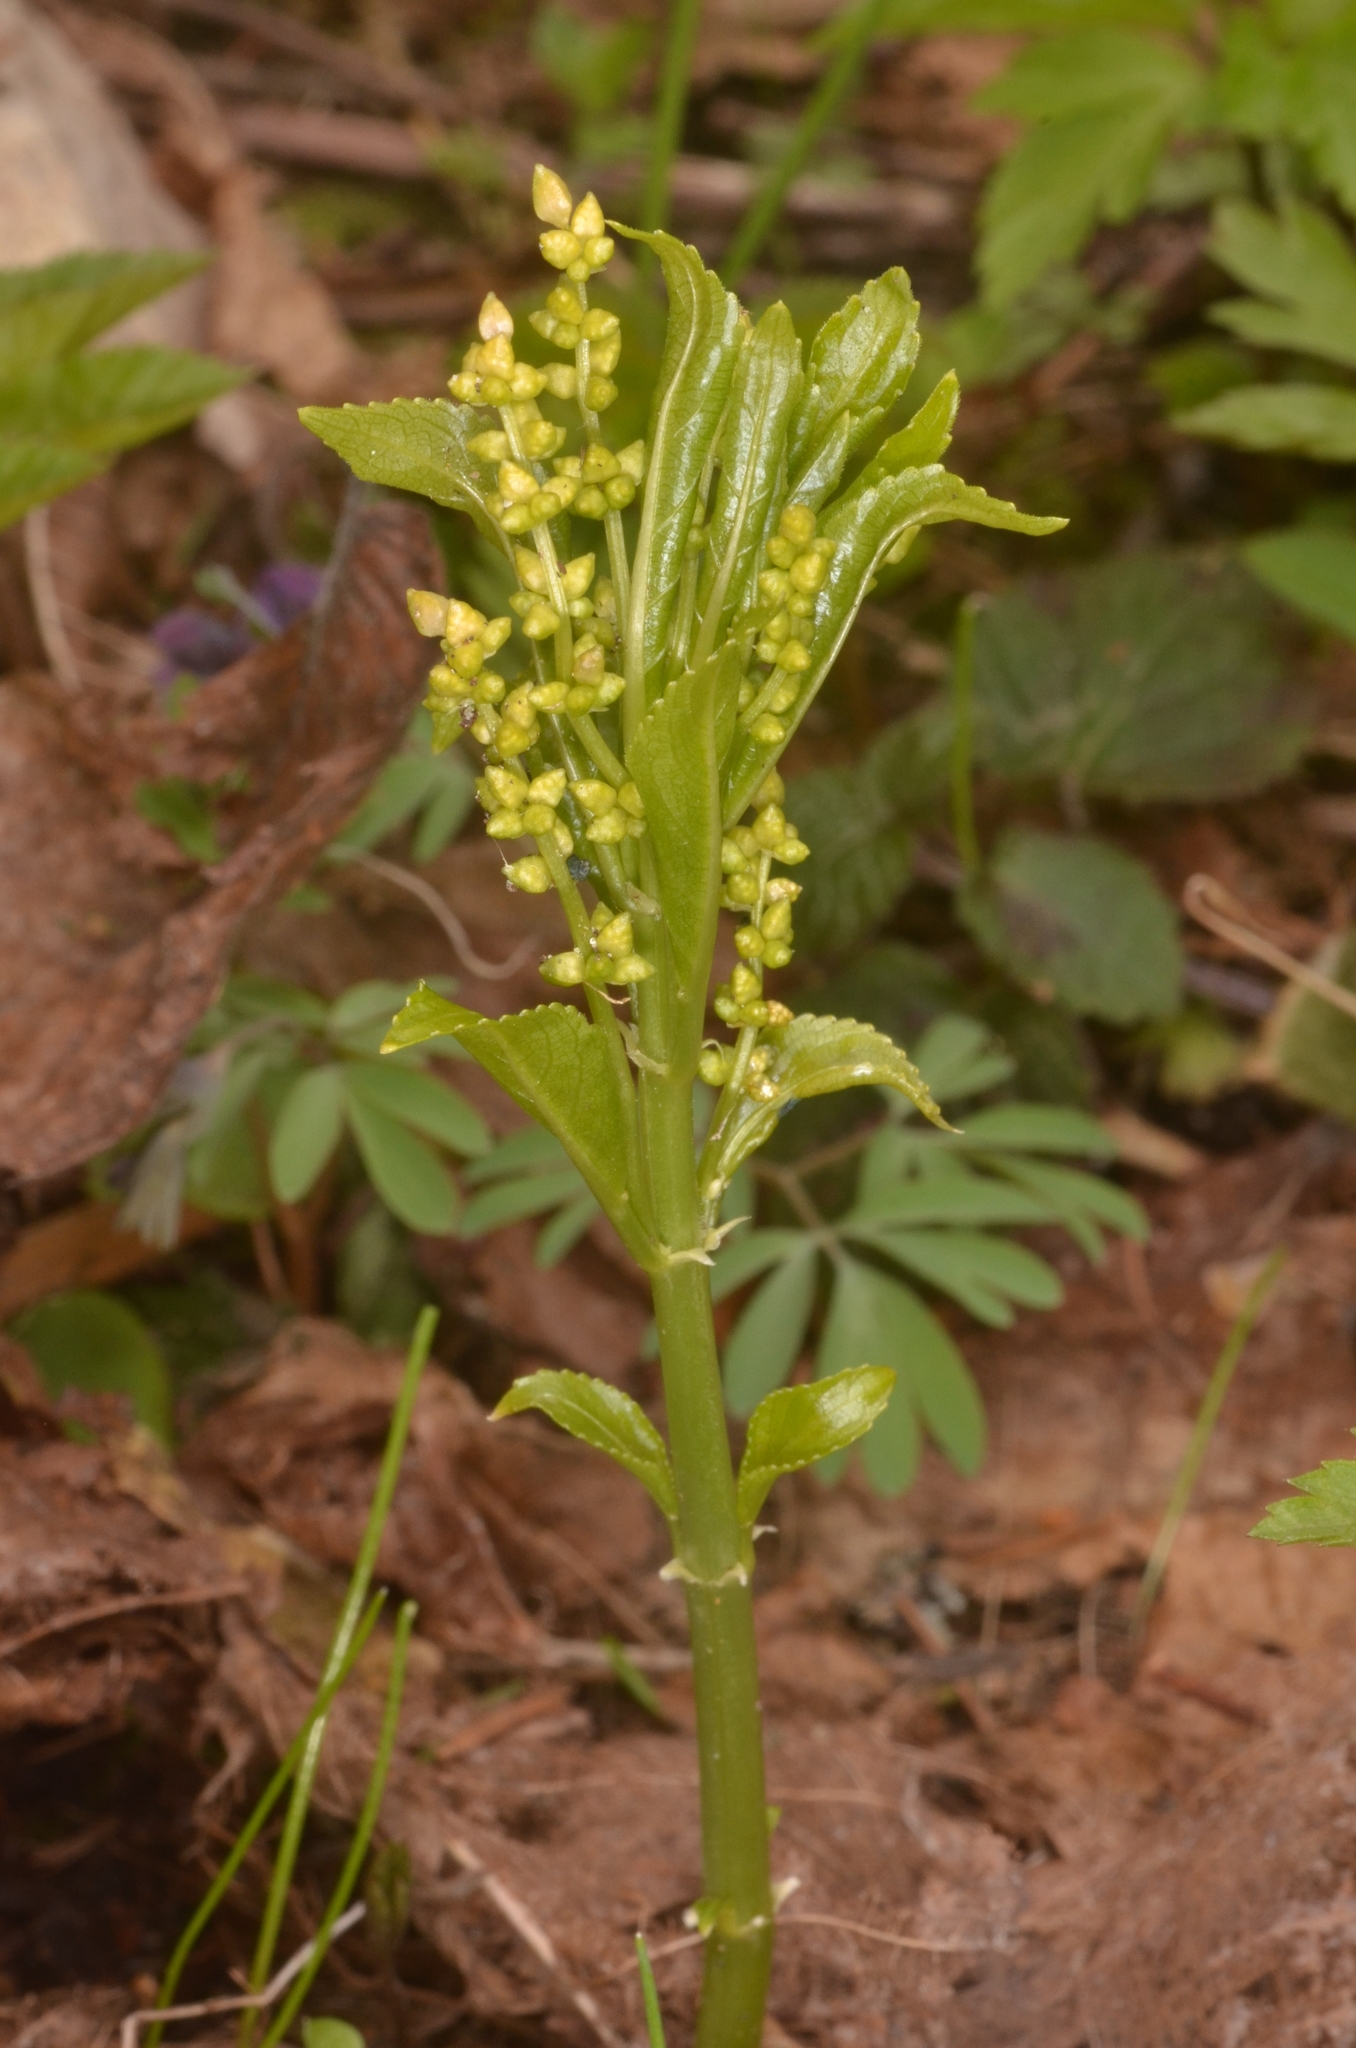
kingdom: Plantae
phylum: Tracheophyta
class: Magnoliopsida
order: Malpighiales
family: Euphorbiaceae
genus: Mercurialis
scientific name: Mercurialis perennis
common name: Dog mercury
